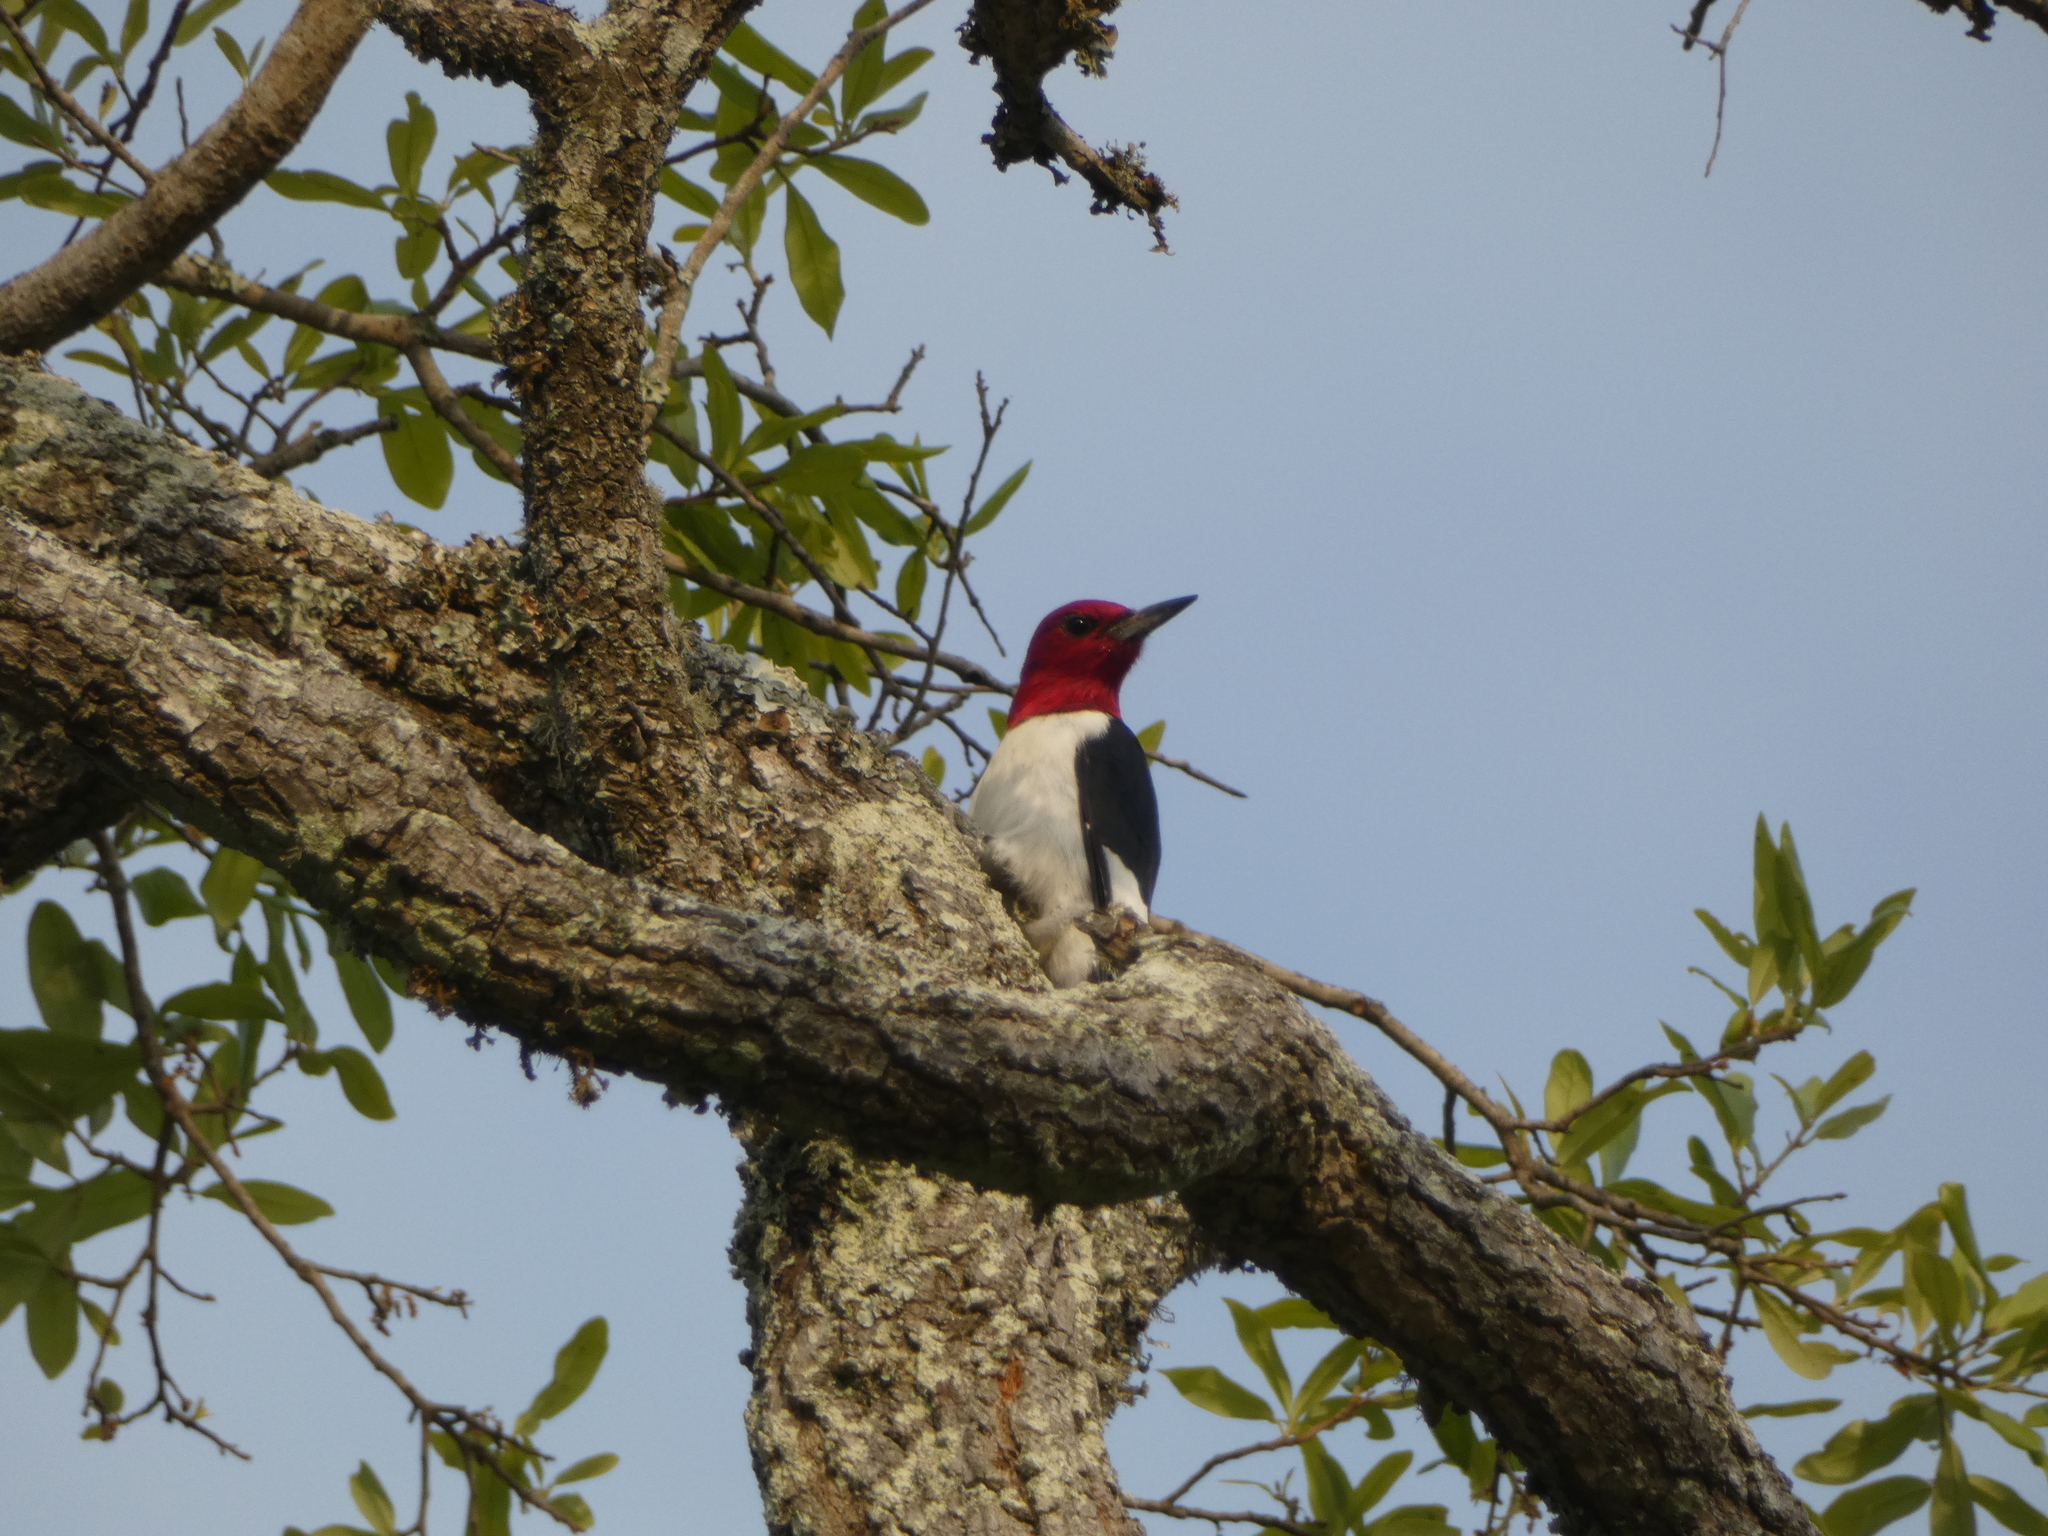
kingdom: Animalia
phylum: Chordata
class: Aves
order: Piciformes
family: Picidae
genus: Melanerpes
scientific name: Melanerpes erythrocephalus
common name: Red-headed woodpecker
